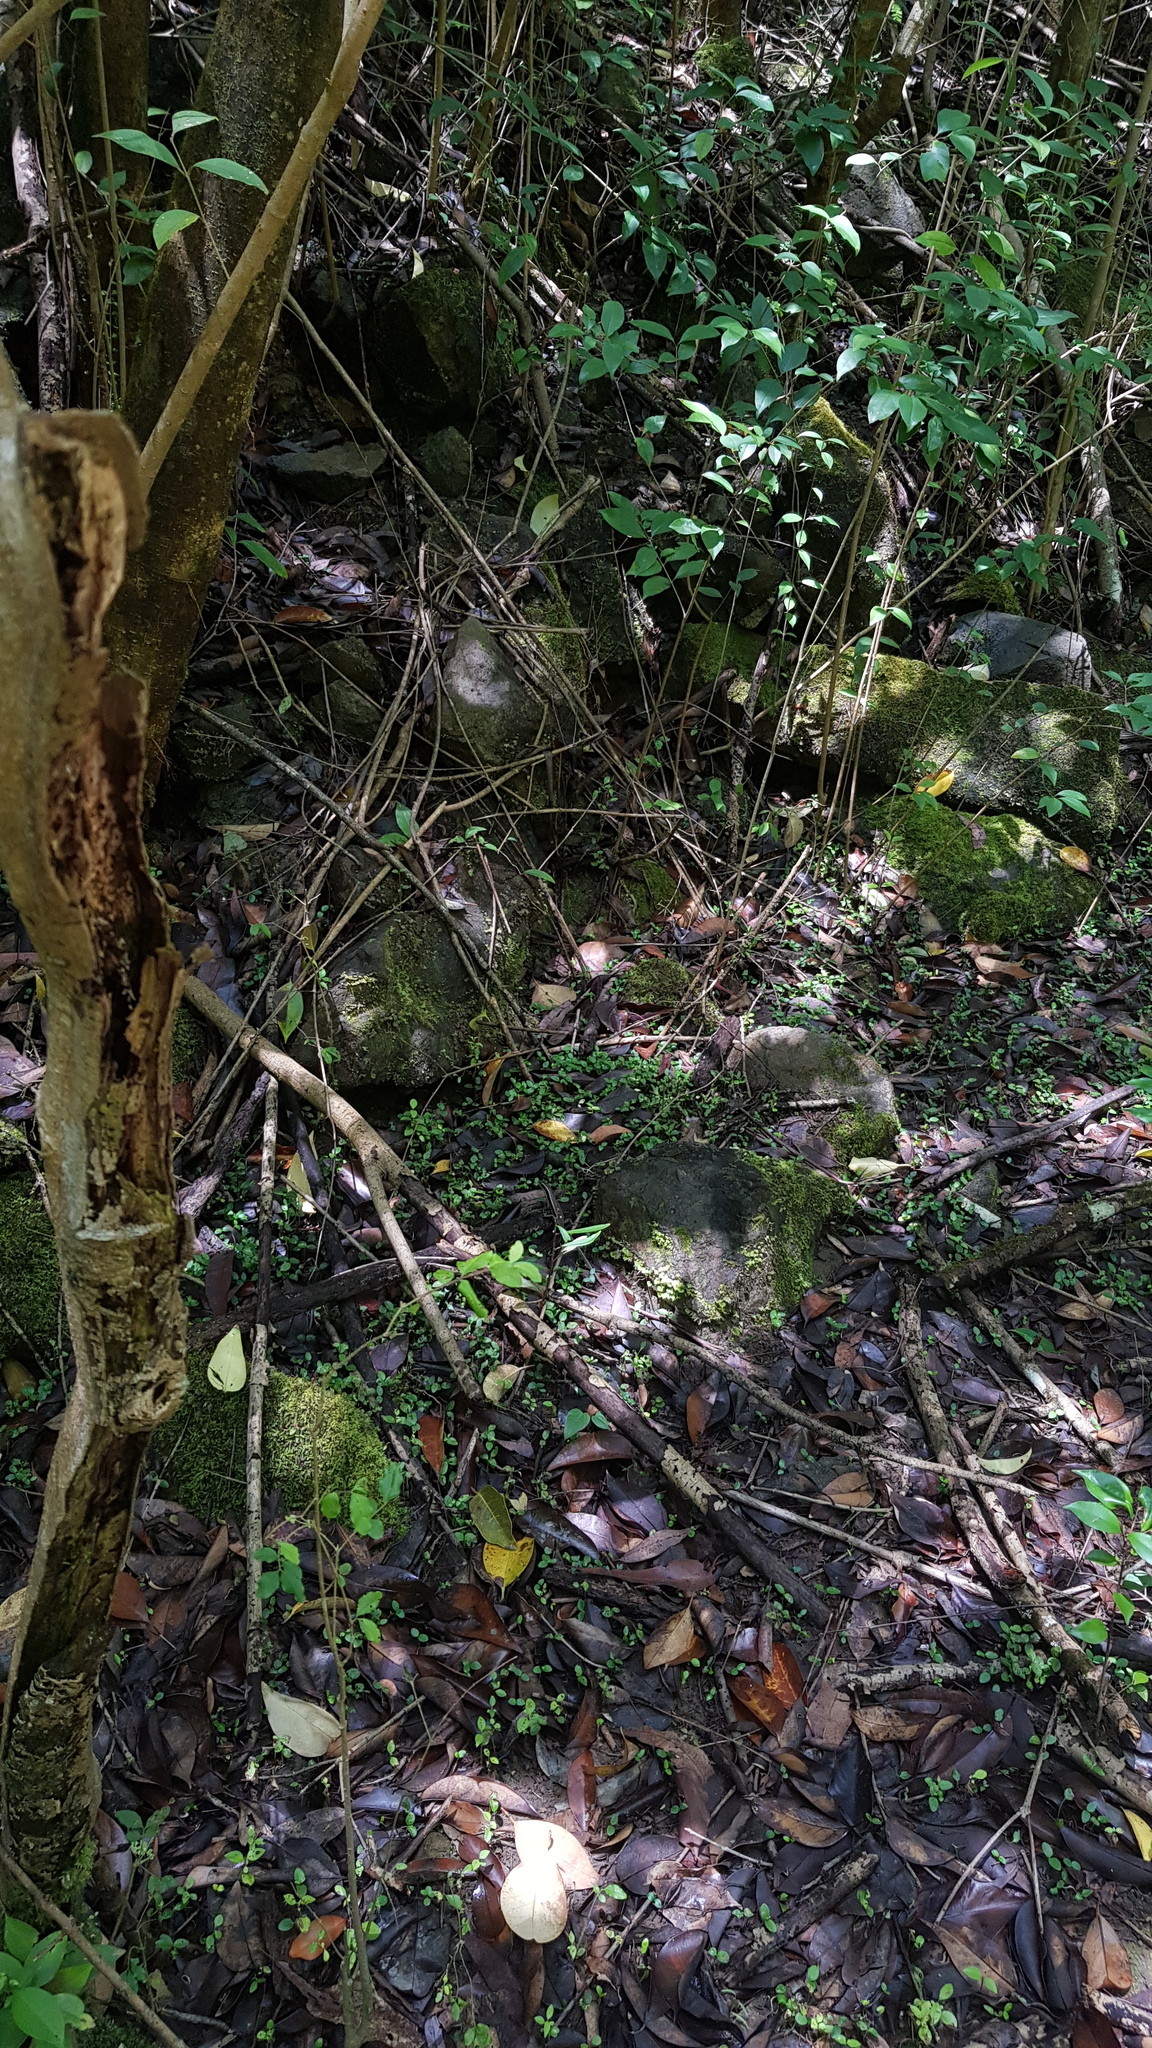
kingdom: Animalia
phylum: Chordata
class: Squamata
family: Scincidae
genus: Eulamprus
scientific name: Eulamprus quoyii
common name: Eastern water skink
